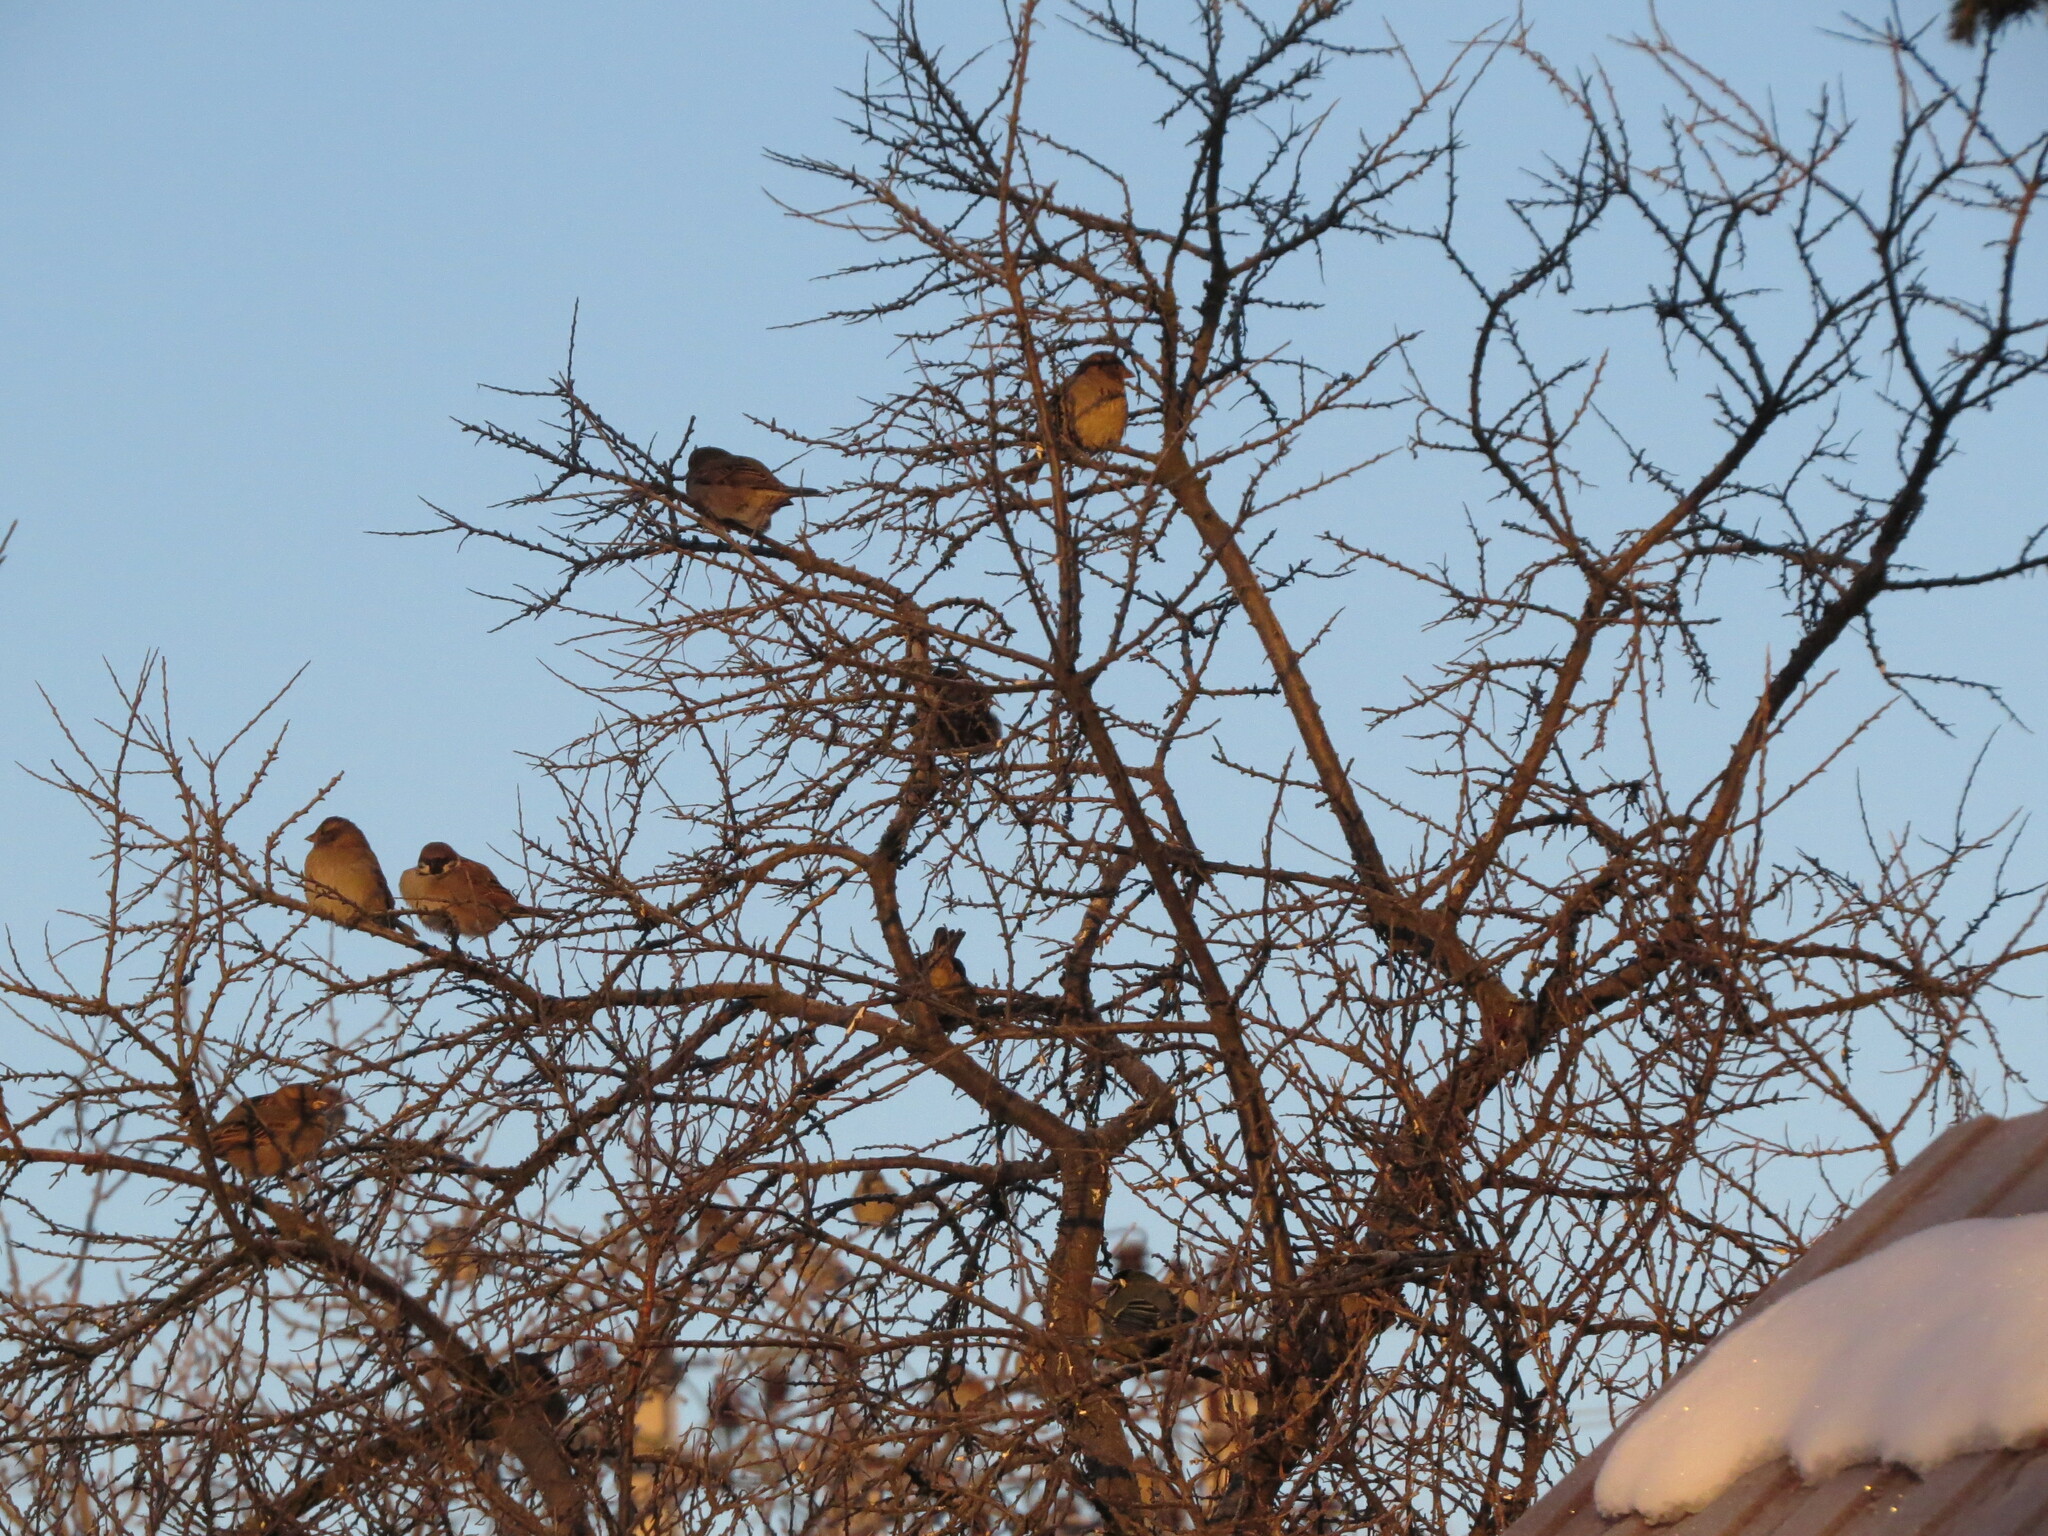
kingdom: Animalia
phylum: Chordata
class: Aves
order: Passeriformes
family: Passeridae
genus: Passer
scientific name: Passer montanus
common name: Eurasian tree sparrow
